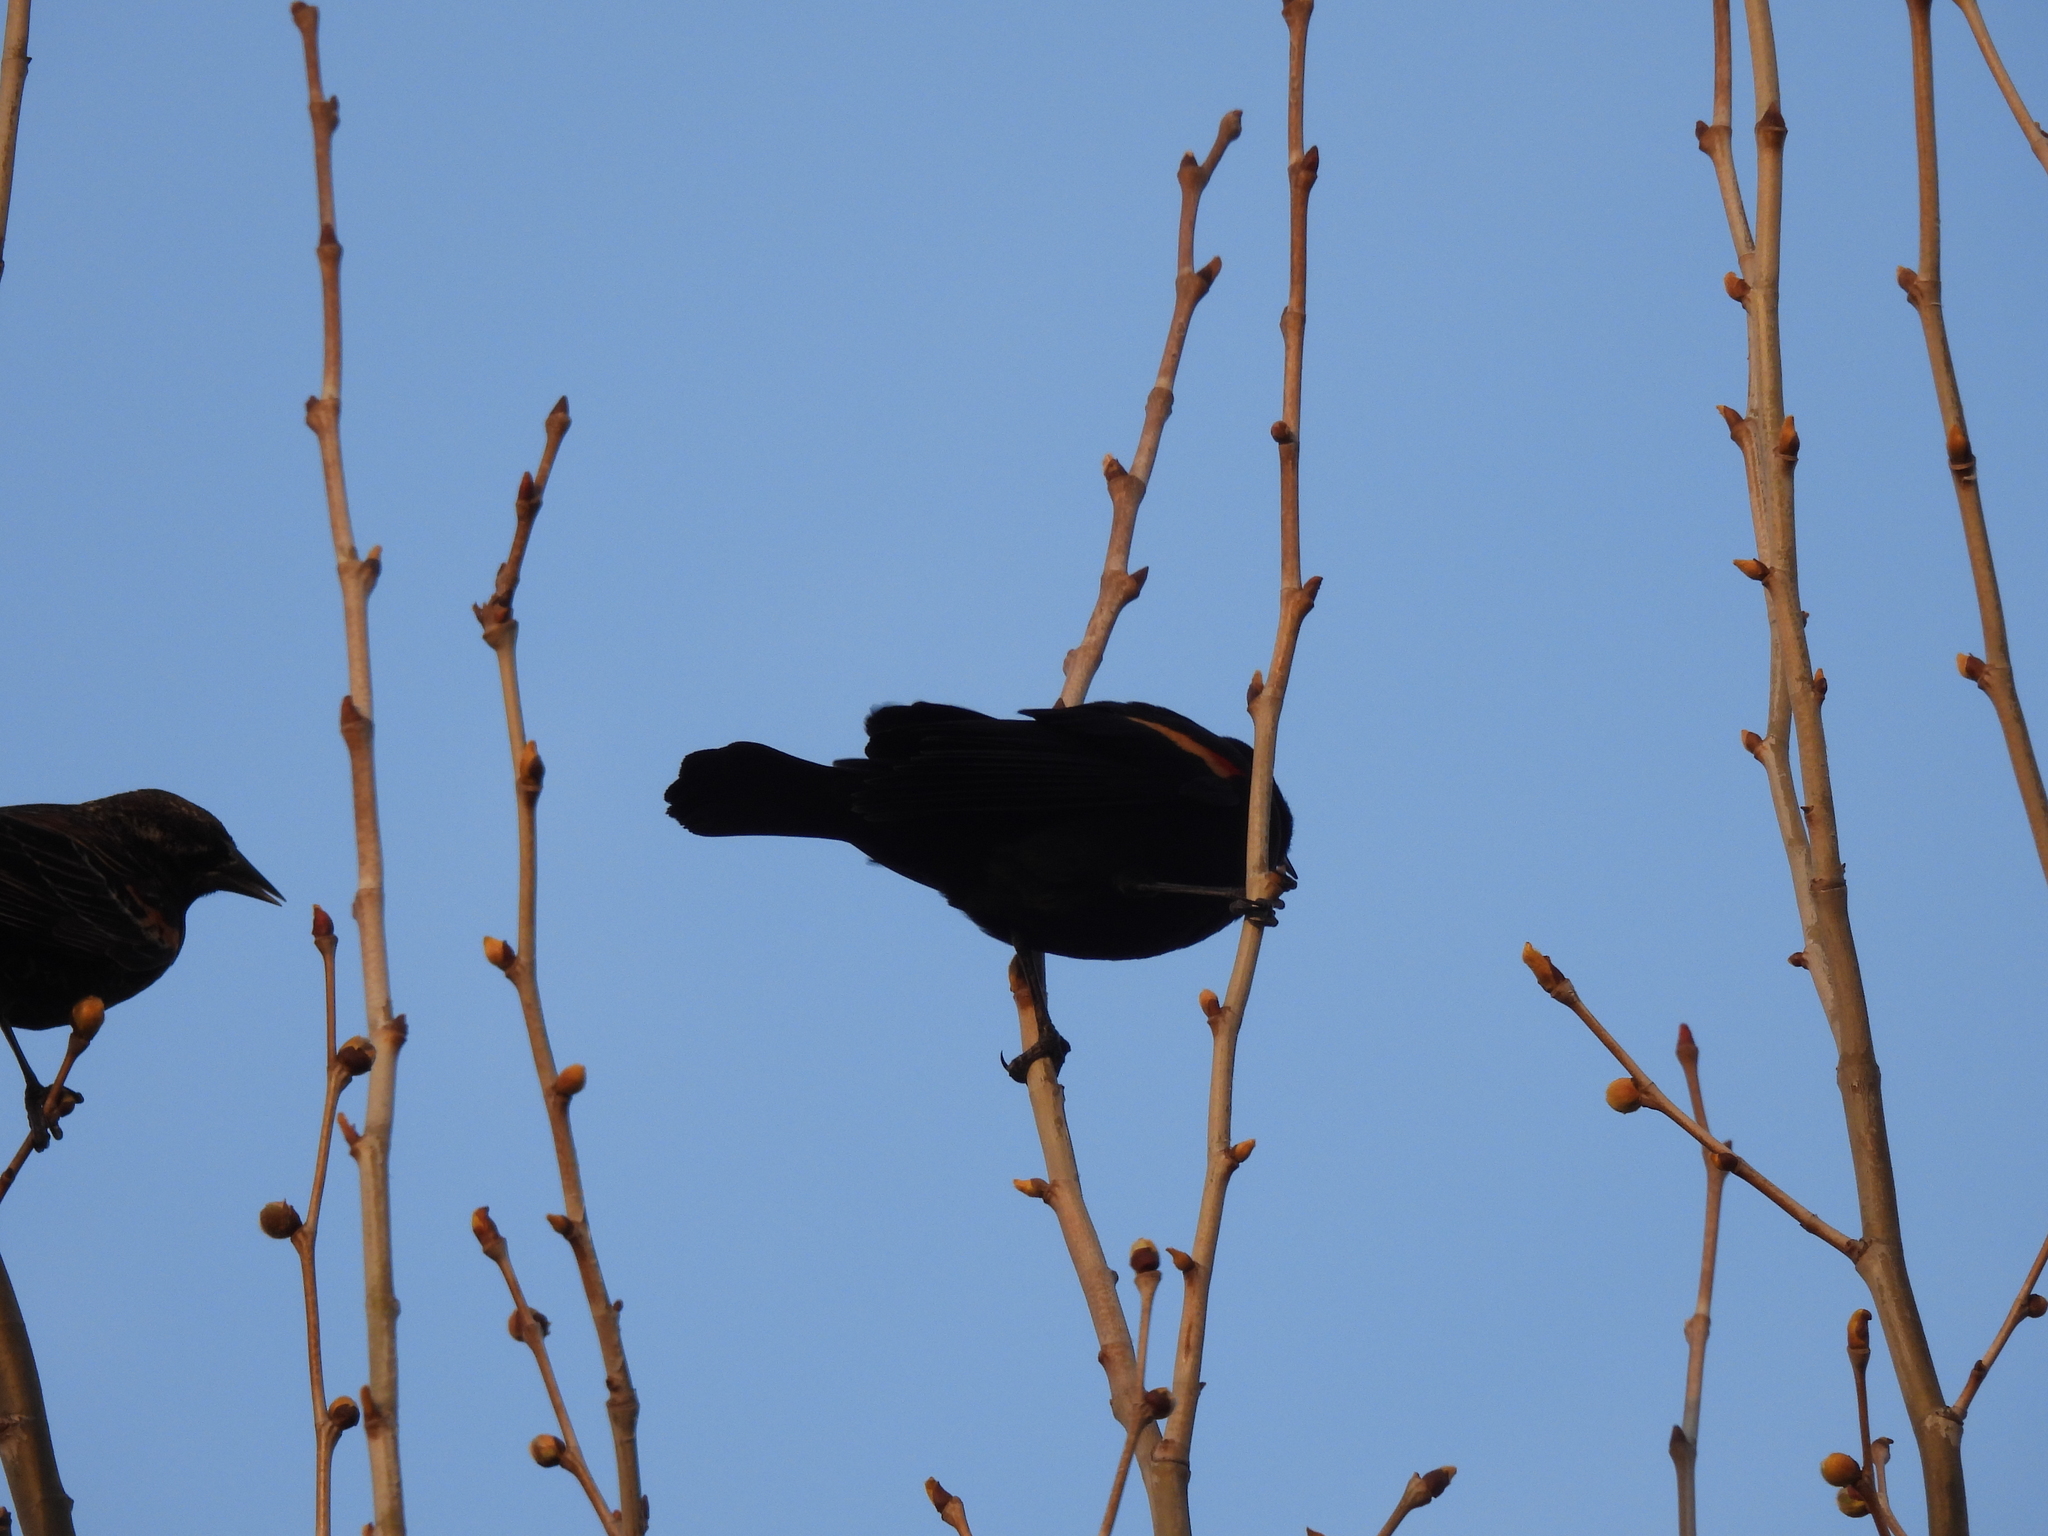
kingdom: Animalia
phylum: Chordata
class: Aves
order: Passeriformes
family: Icteridae
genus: Agelaius
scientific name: Agelaius phoeniceus
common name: Red-winged blackbird
